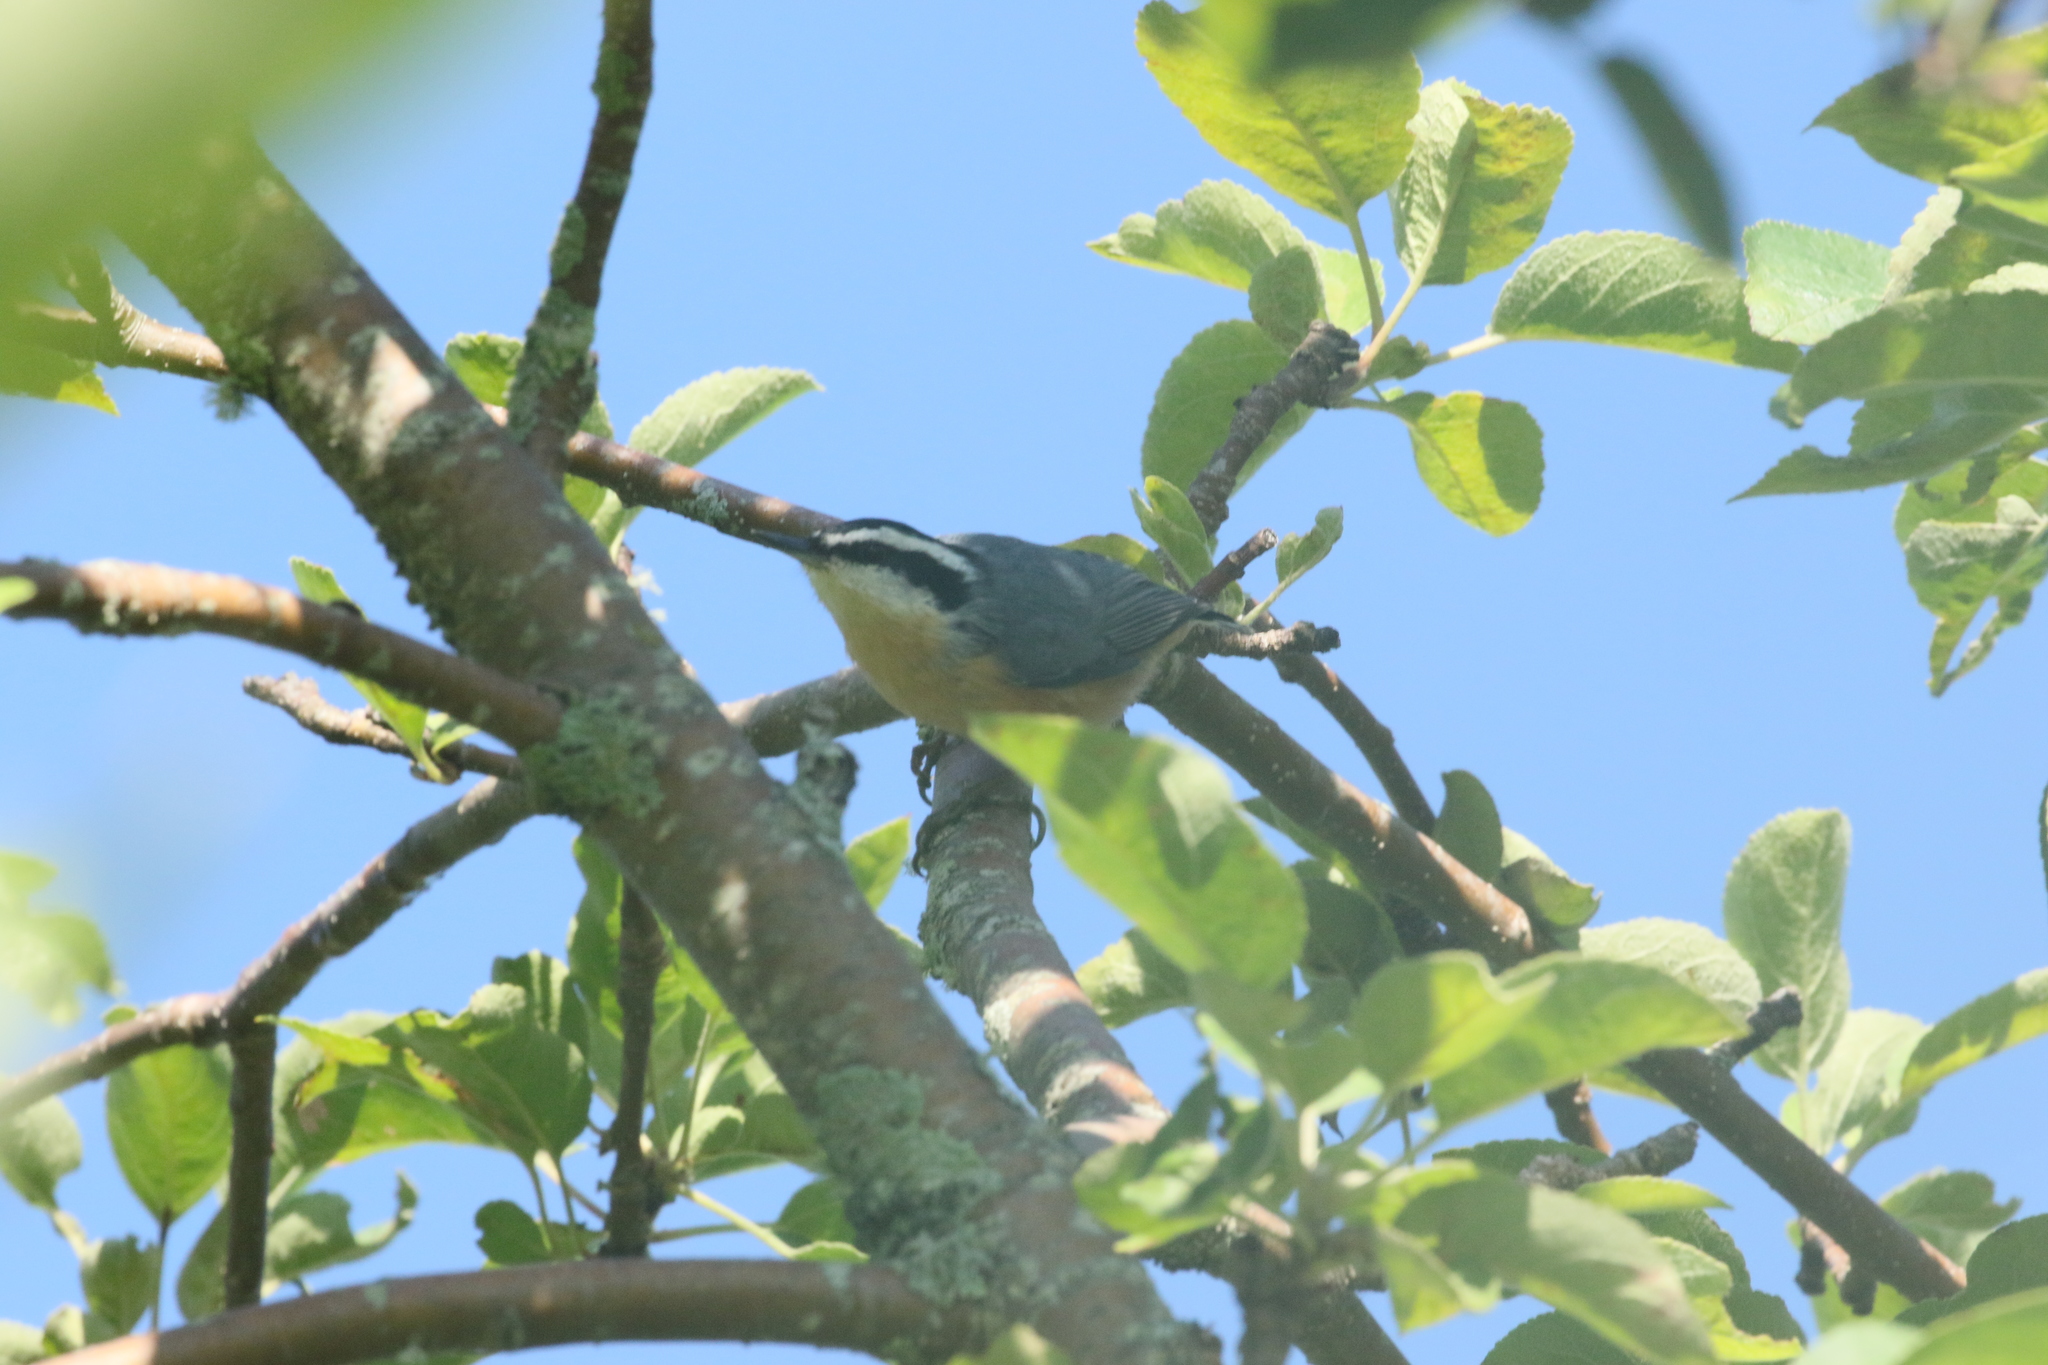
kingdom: Animalia
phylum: Chordata
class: Aves
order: Passeriformes
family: Sittidae
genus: Sitta
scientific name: Sitta canadensis
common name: Red-breasted nuthatch
